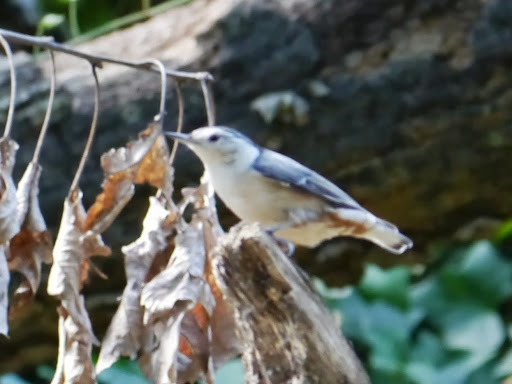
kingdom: Animalia
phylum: Chordata
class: Aves
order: Passeriformes
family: Sittidae
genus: Sitta
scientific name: Sitta carolinensis
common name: White-breasted nuthatch
